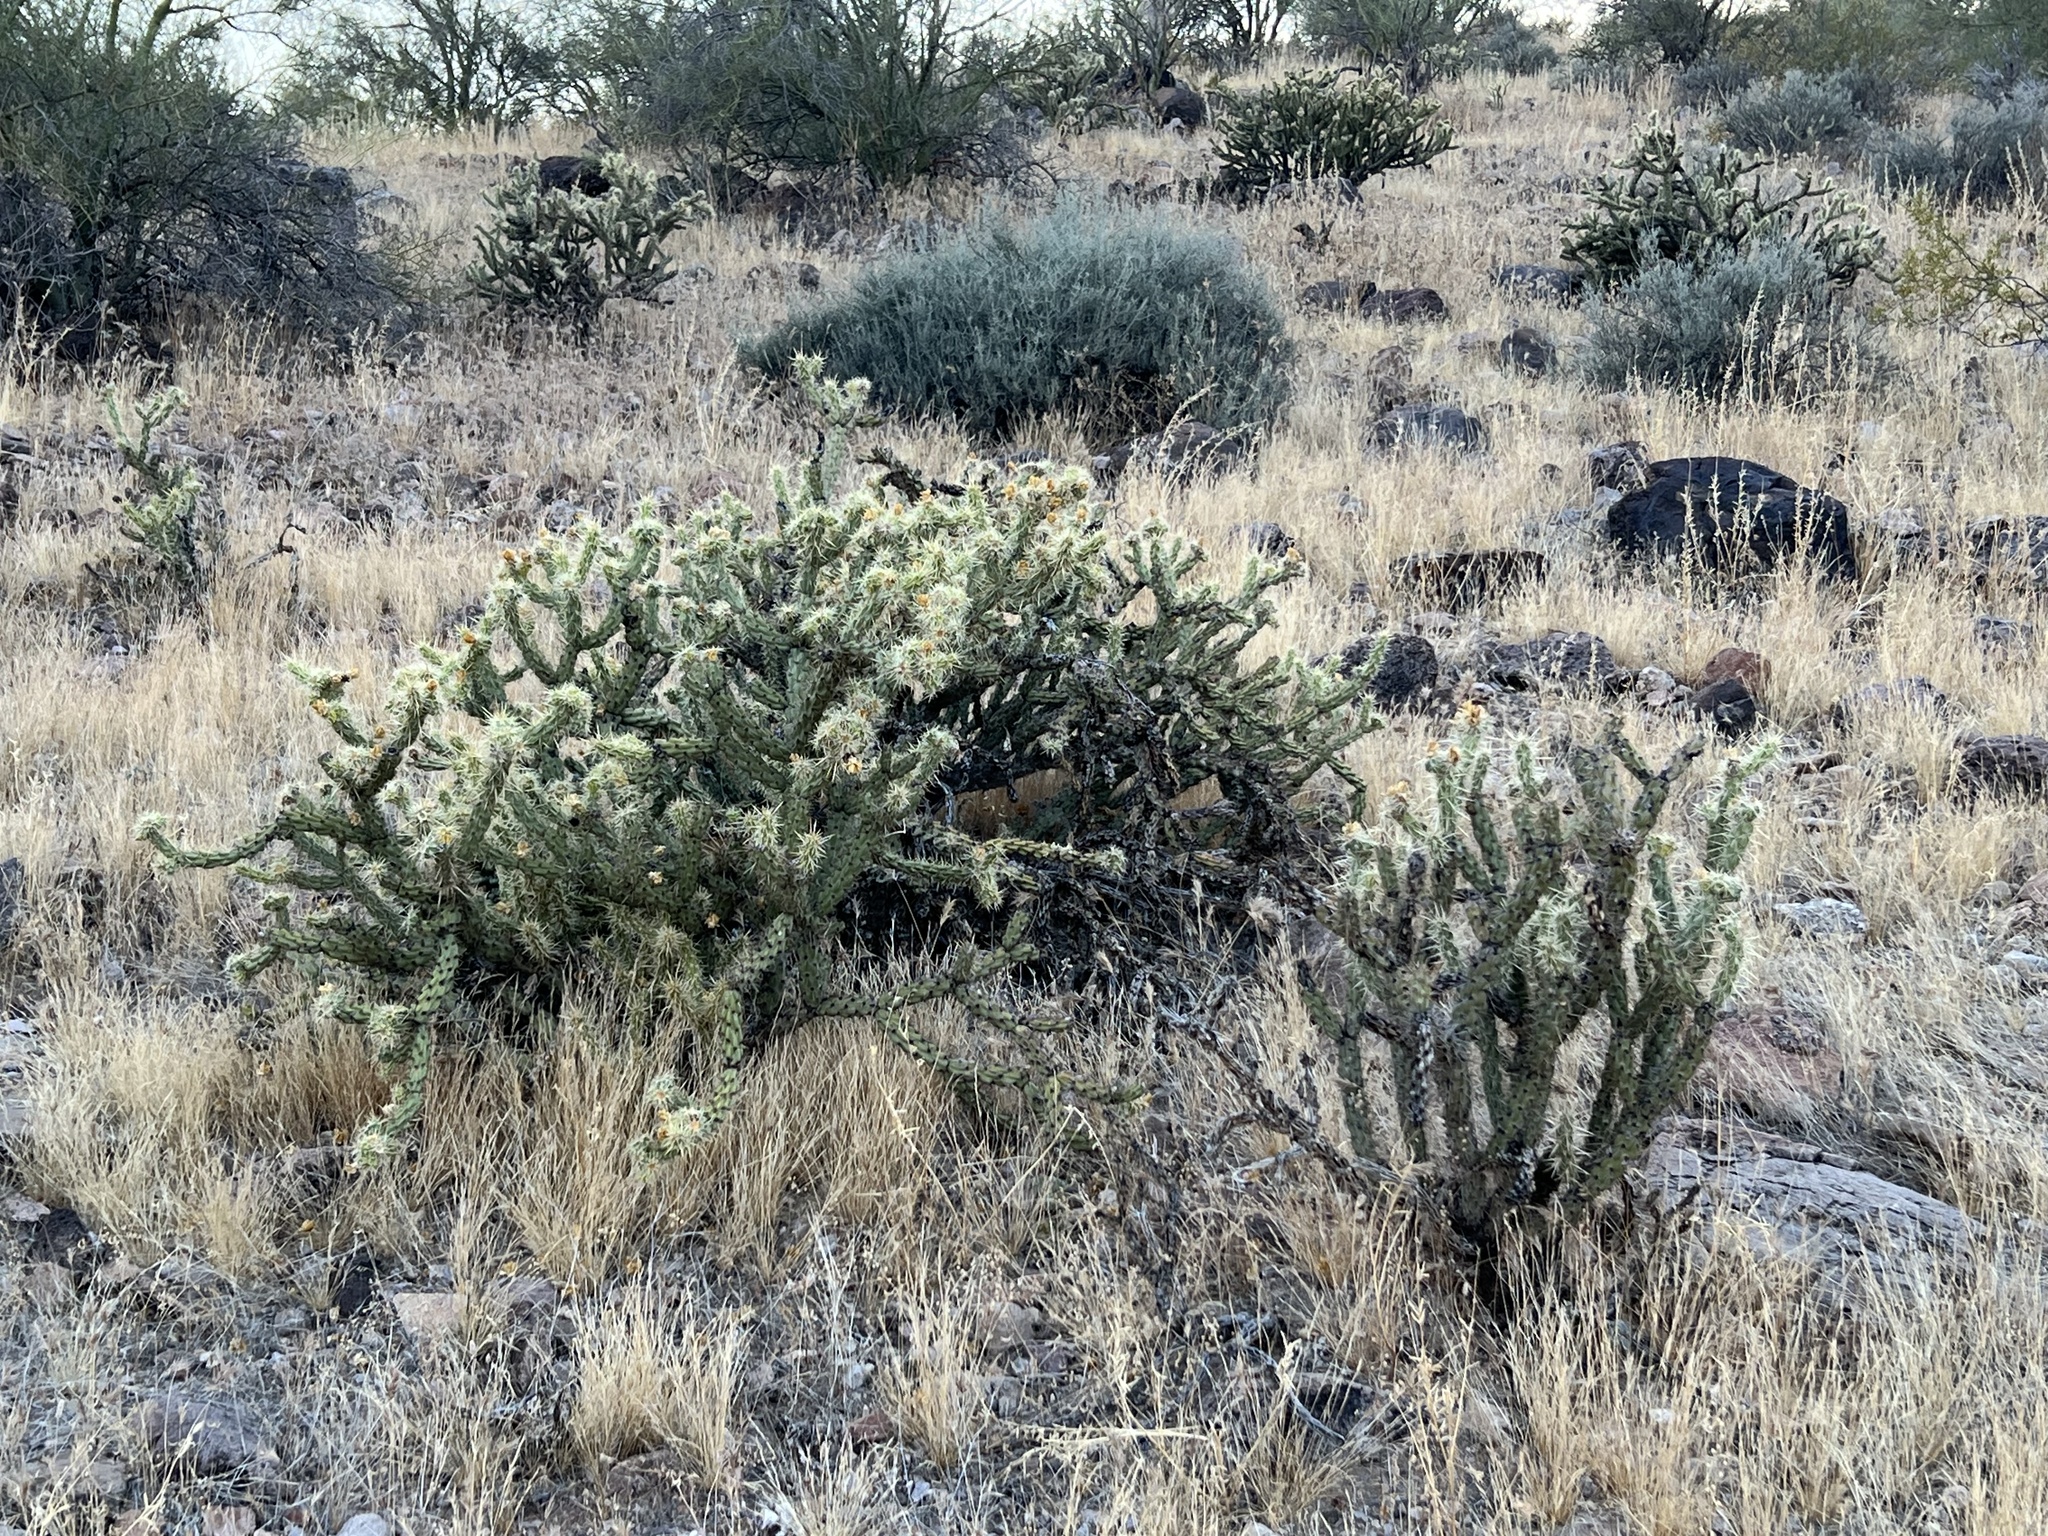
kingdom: Plantae
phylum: Tracheophyta
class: Magnoliopsida
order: Caryophyllales
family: Cactaceae
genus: Cylindropuntia
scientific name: Cylindropuntia acanthocarpa
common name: Buckhorn cholla
